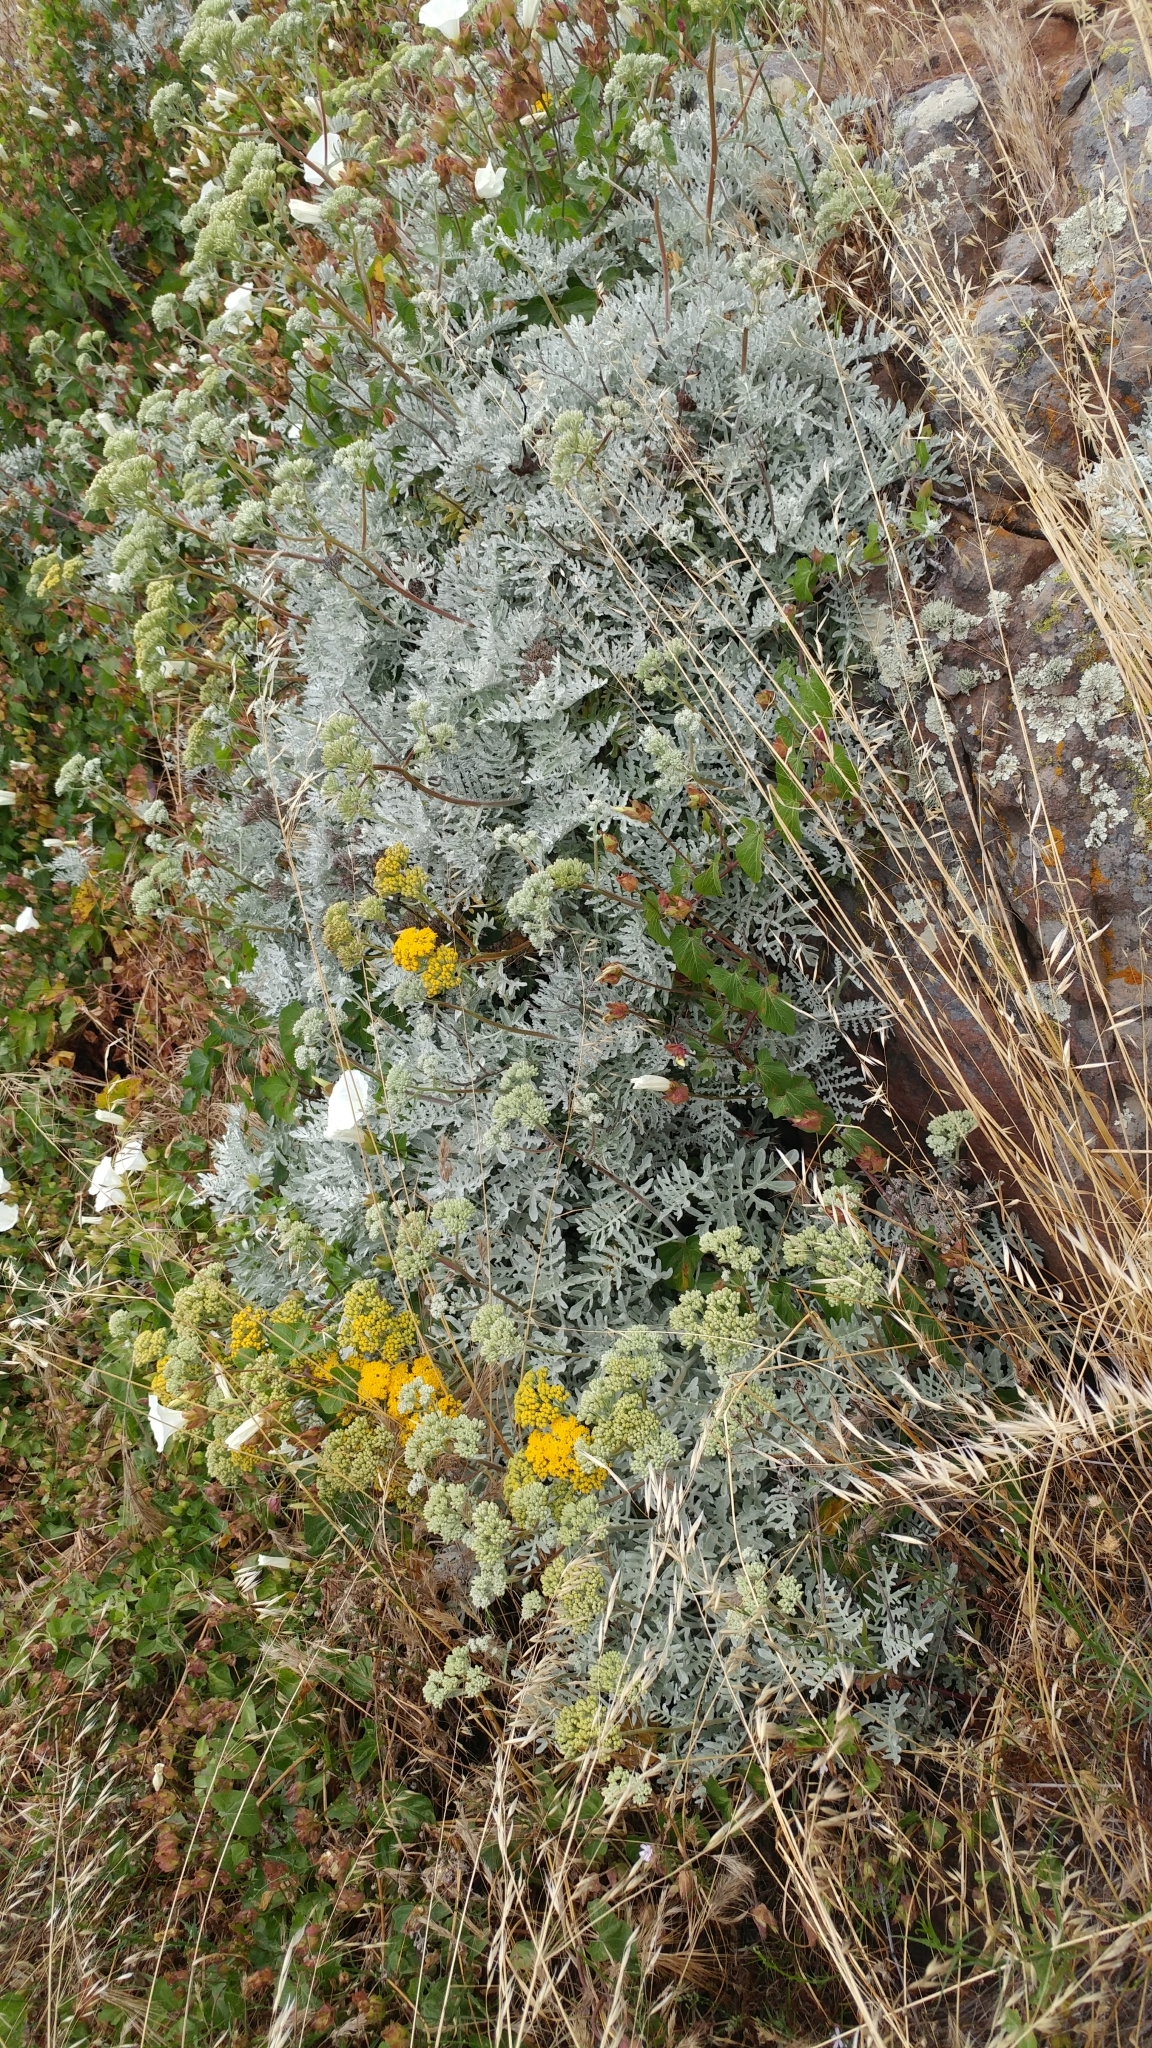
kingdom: Plantae
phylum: Tracheophyta
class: Magnoliopsida
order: Asterales
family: Asteraceae
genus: Constancea
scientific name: Constancea nevinii
